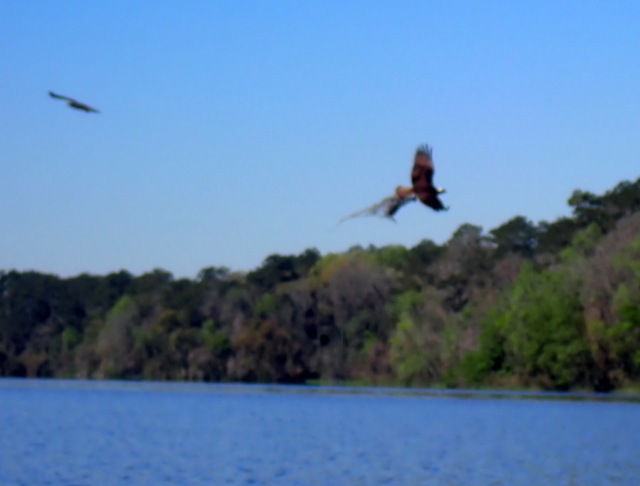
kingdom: Animalia
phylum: Chordata
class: Aves
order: Accipitriformes
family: Pandionidae
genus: Pandion
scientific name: Pandion haliaetus
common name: Osprey
